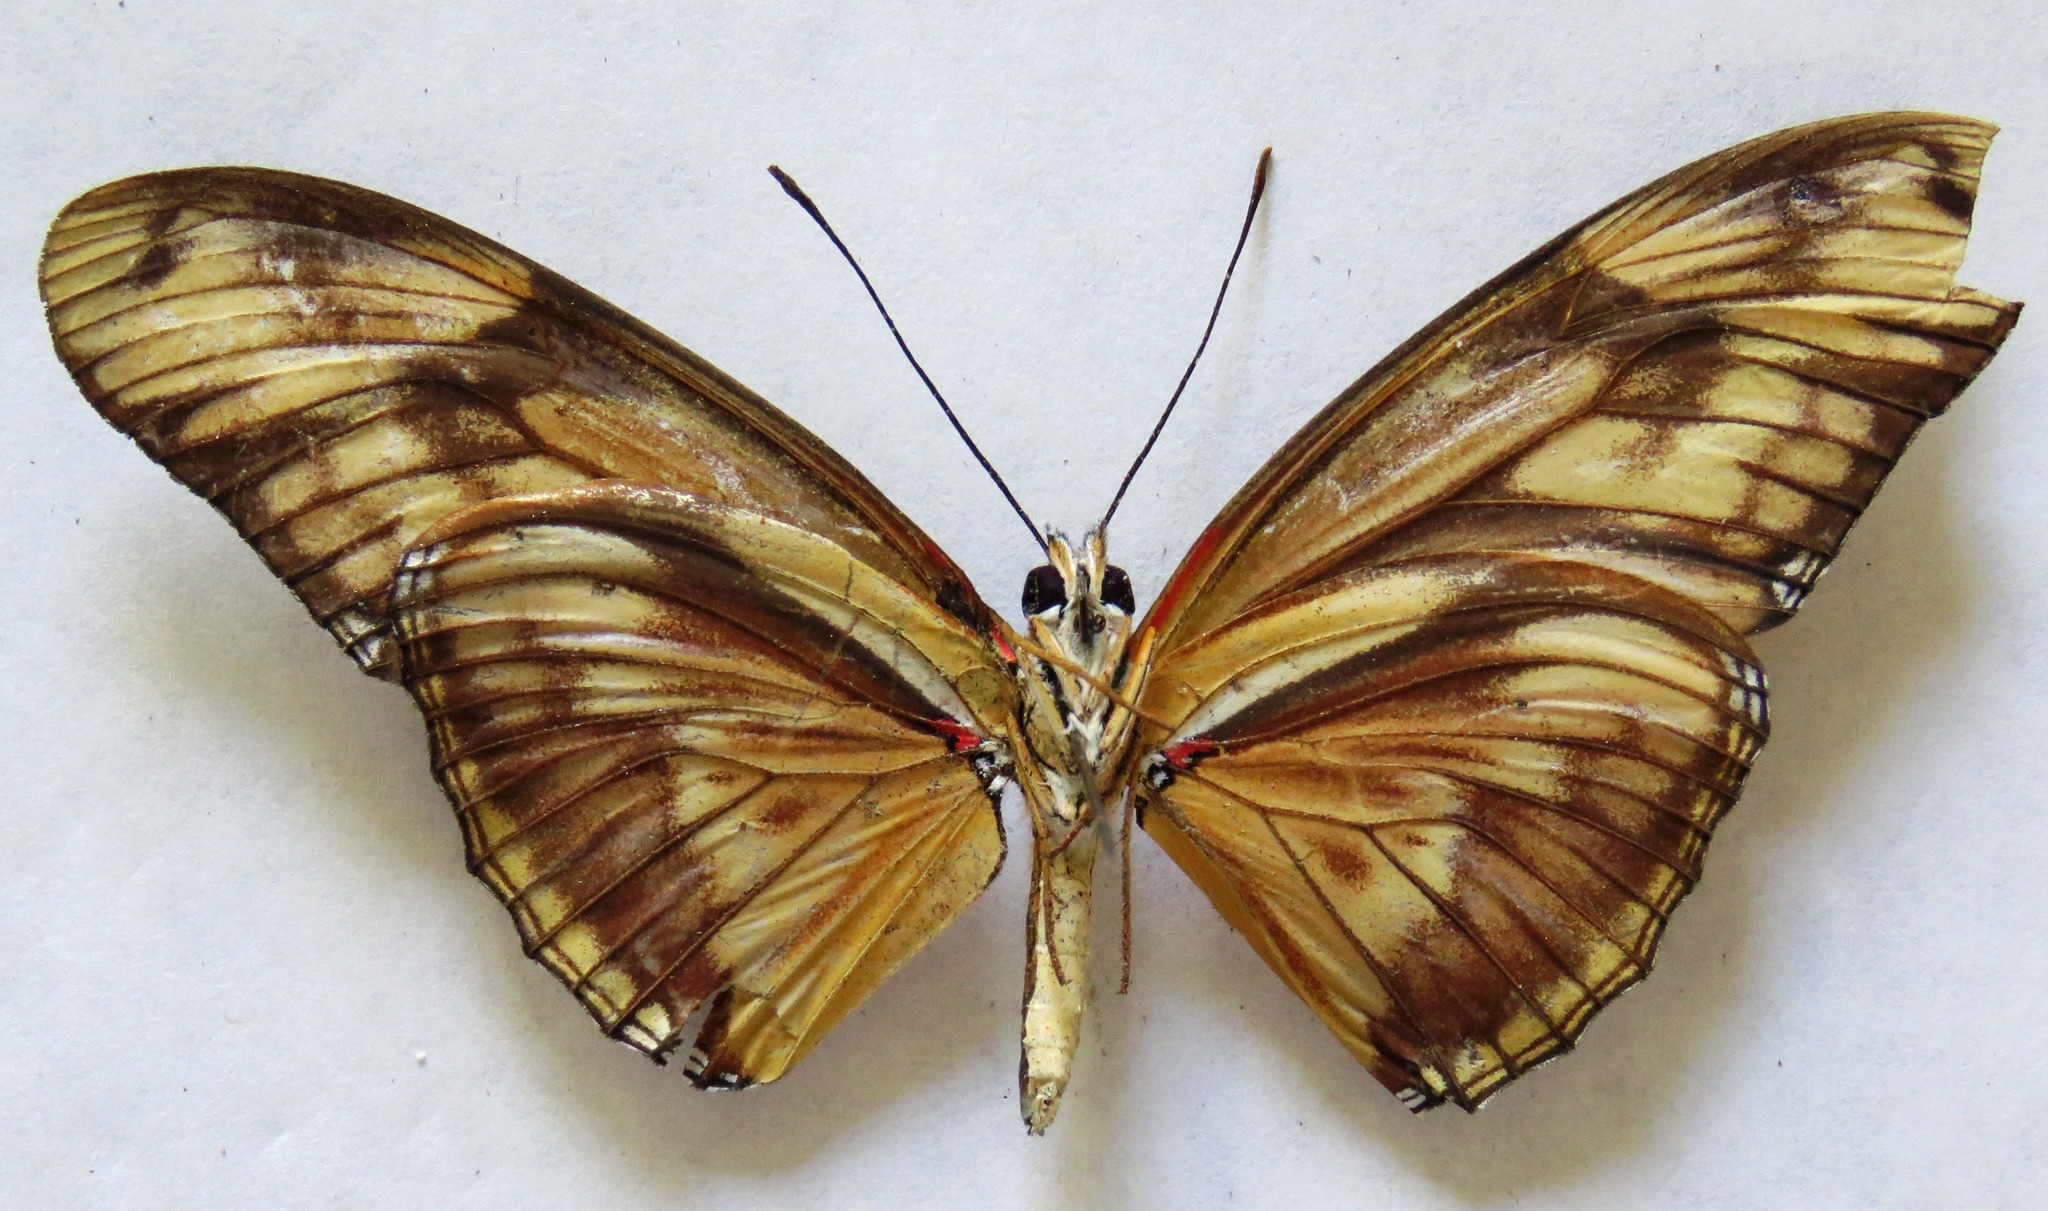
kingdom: Animalia
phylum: Arthropoda
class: Insecta
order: Lepidoptera
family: Nymphalidae
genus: Dryas
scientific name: Dryas iulia
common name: Flambeau
